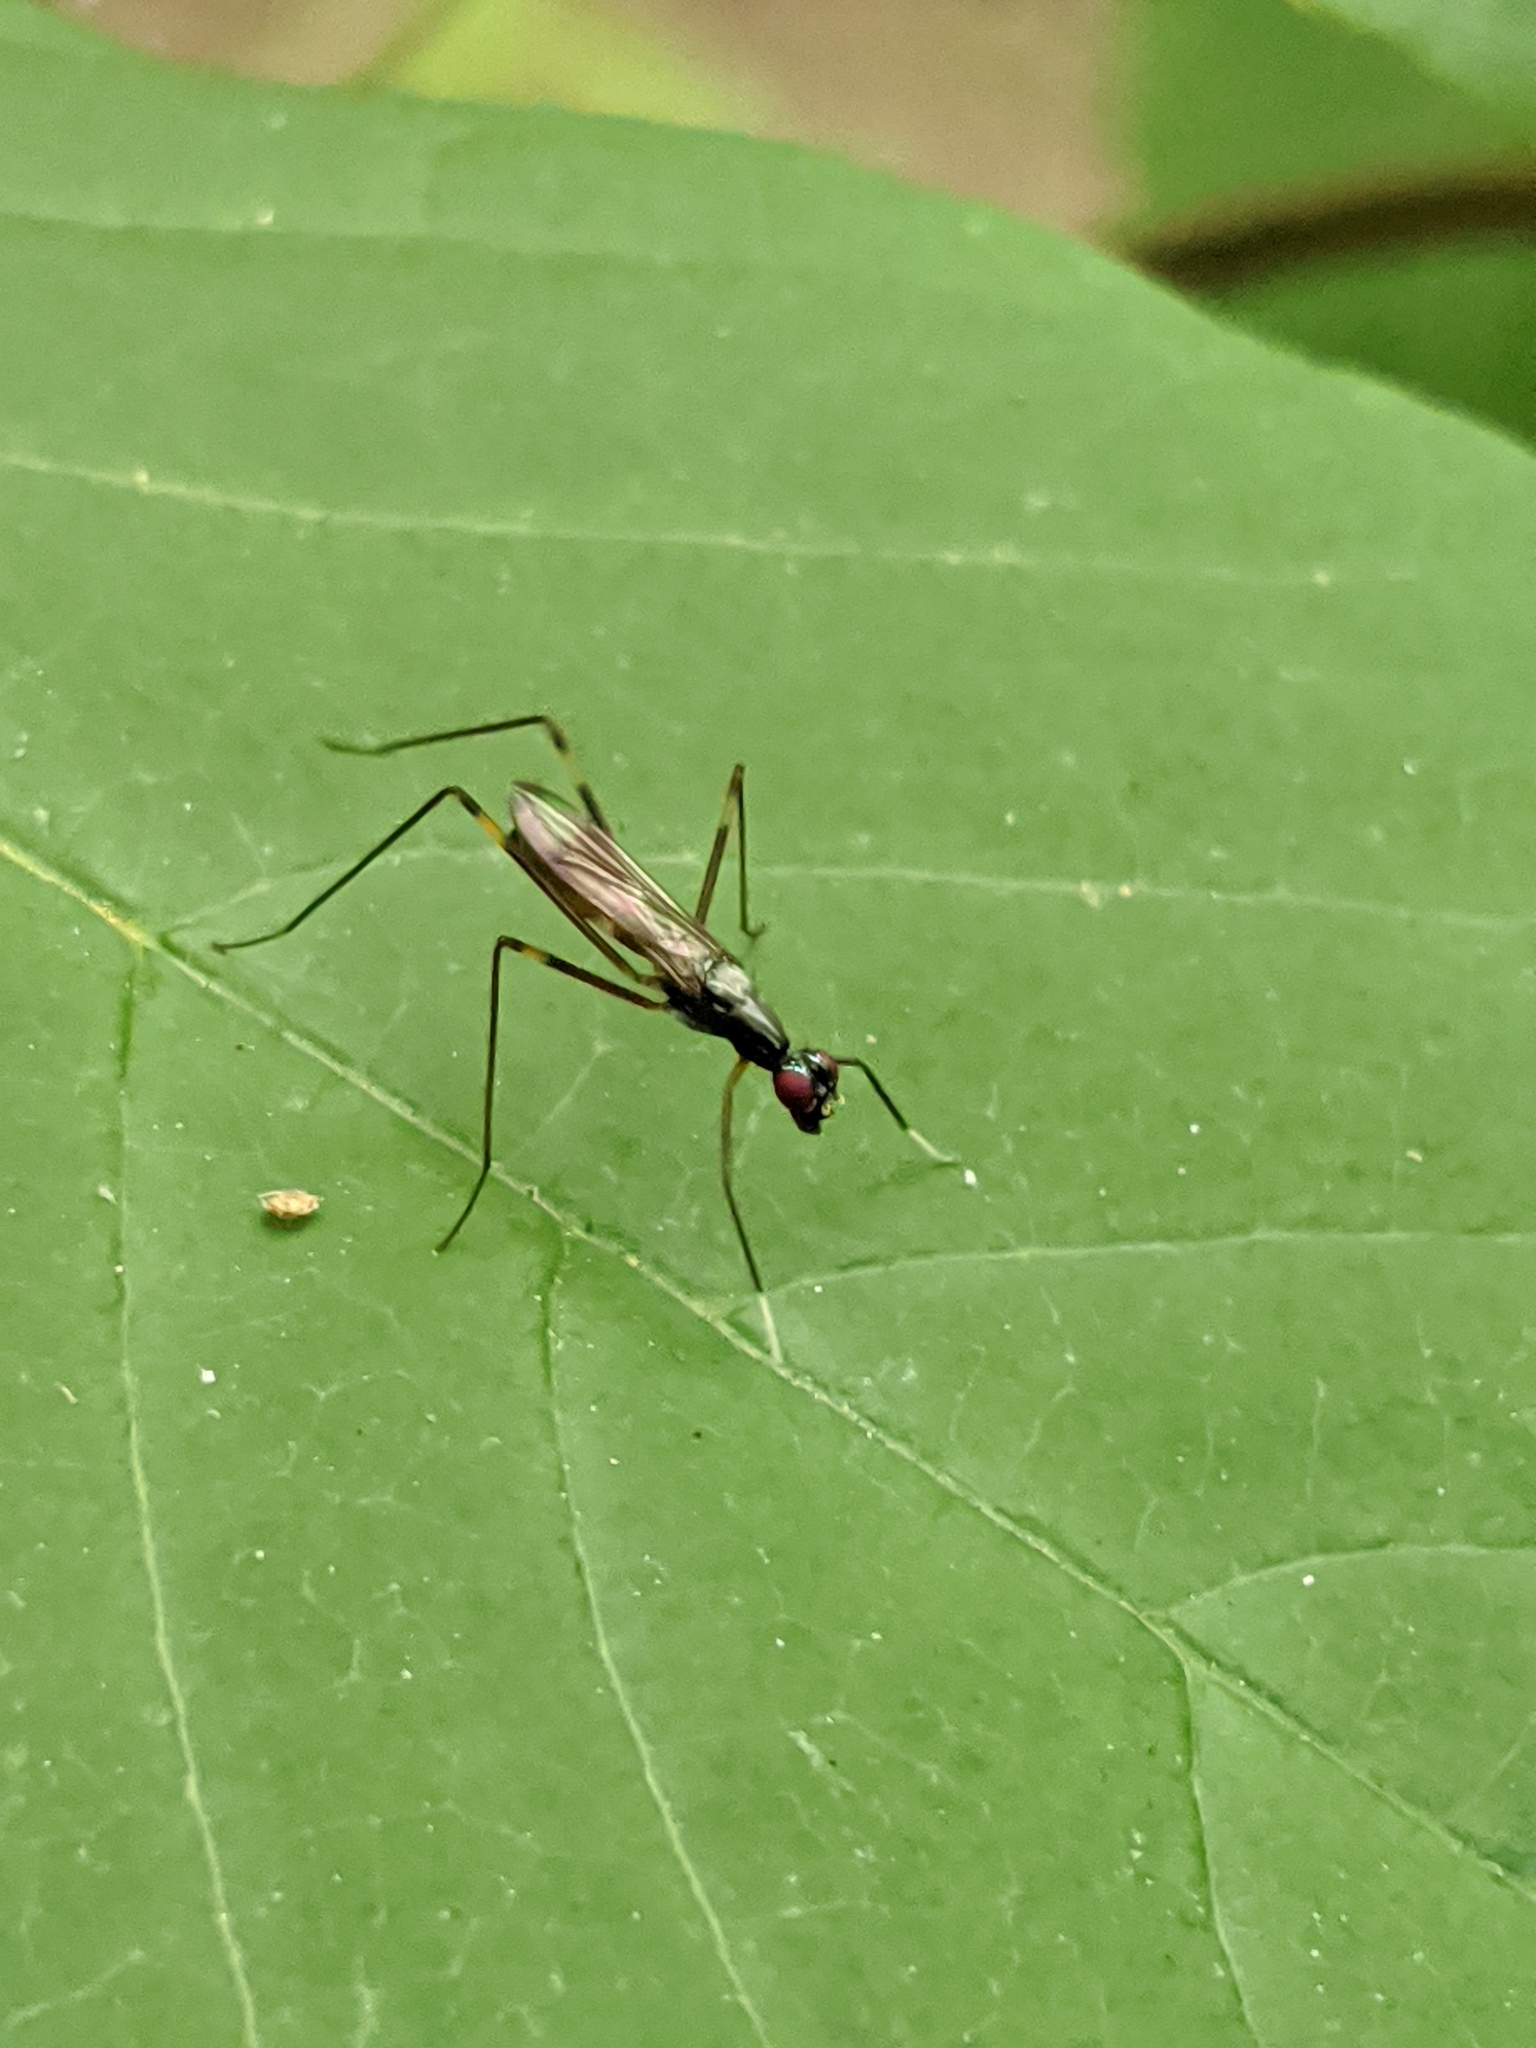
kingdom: Animalia
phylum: Arthropoda
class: Insecta
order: Diptera
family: Micropezidae
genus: Rainieria
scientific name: Rainieria antennaepes
